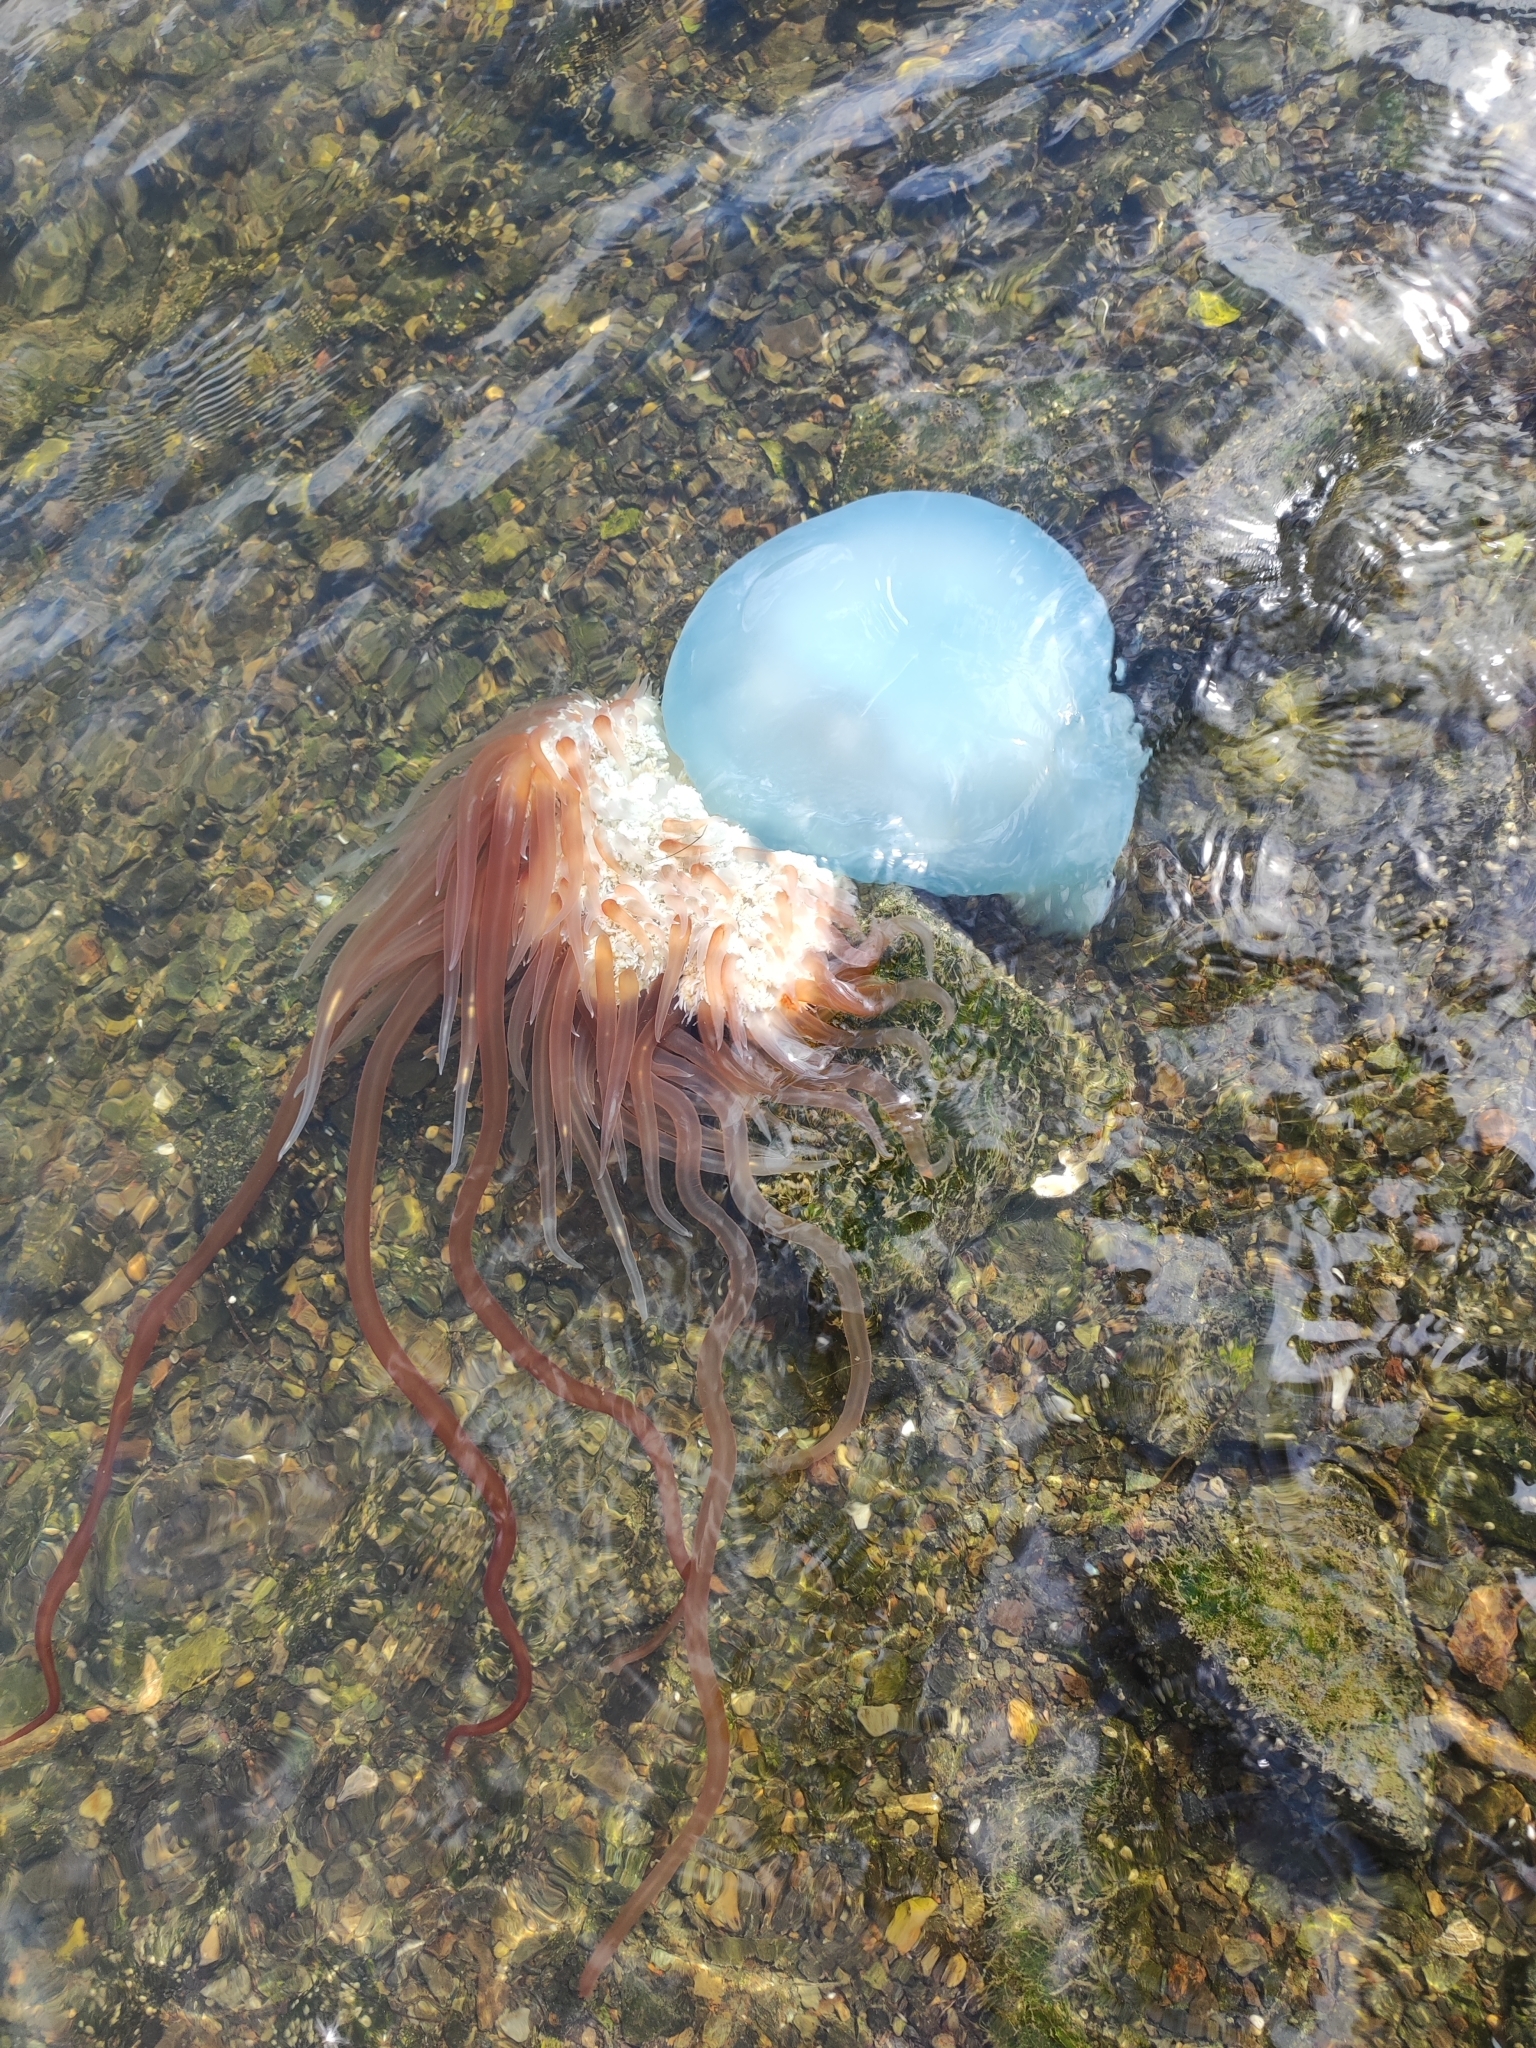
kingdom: Animalia
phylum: Cnidaria
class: Scyphozoa
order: Rhizostomeae
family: Rhizostomatidae
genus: Rhopilema
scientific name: Rhopilema esculentum
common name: Japanese edible jellyfish
